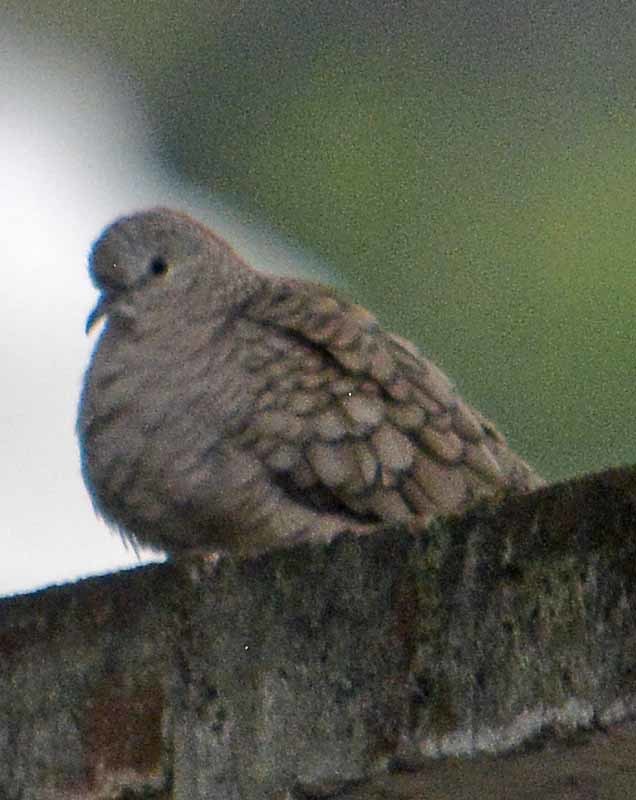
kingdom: Animalia
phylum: Chordata
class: Aves
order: Columbiformes
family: Columbidae
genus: Columbina
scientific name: Columbina inca
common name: Inca dove
